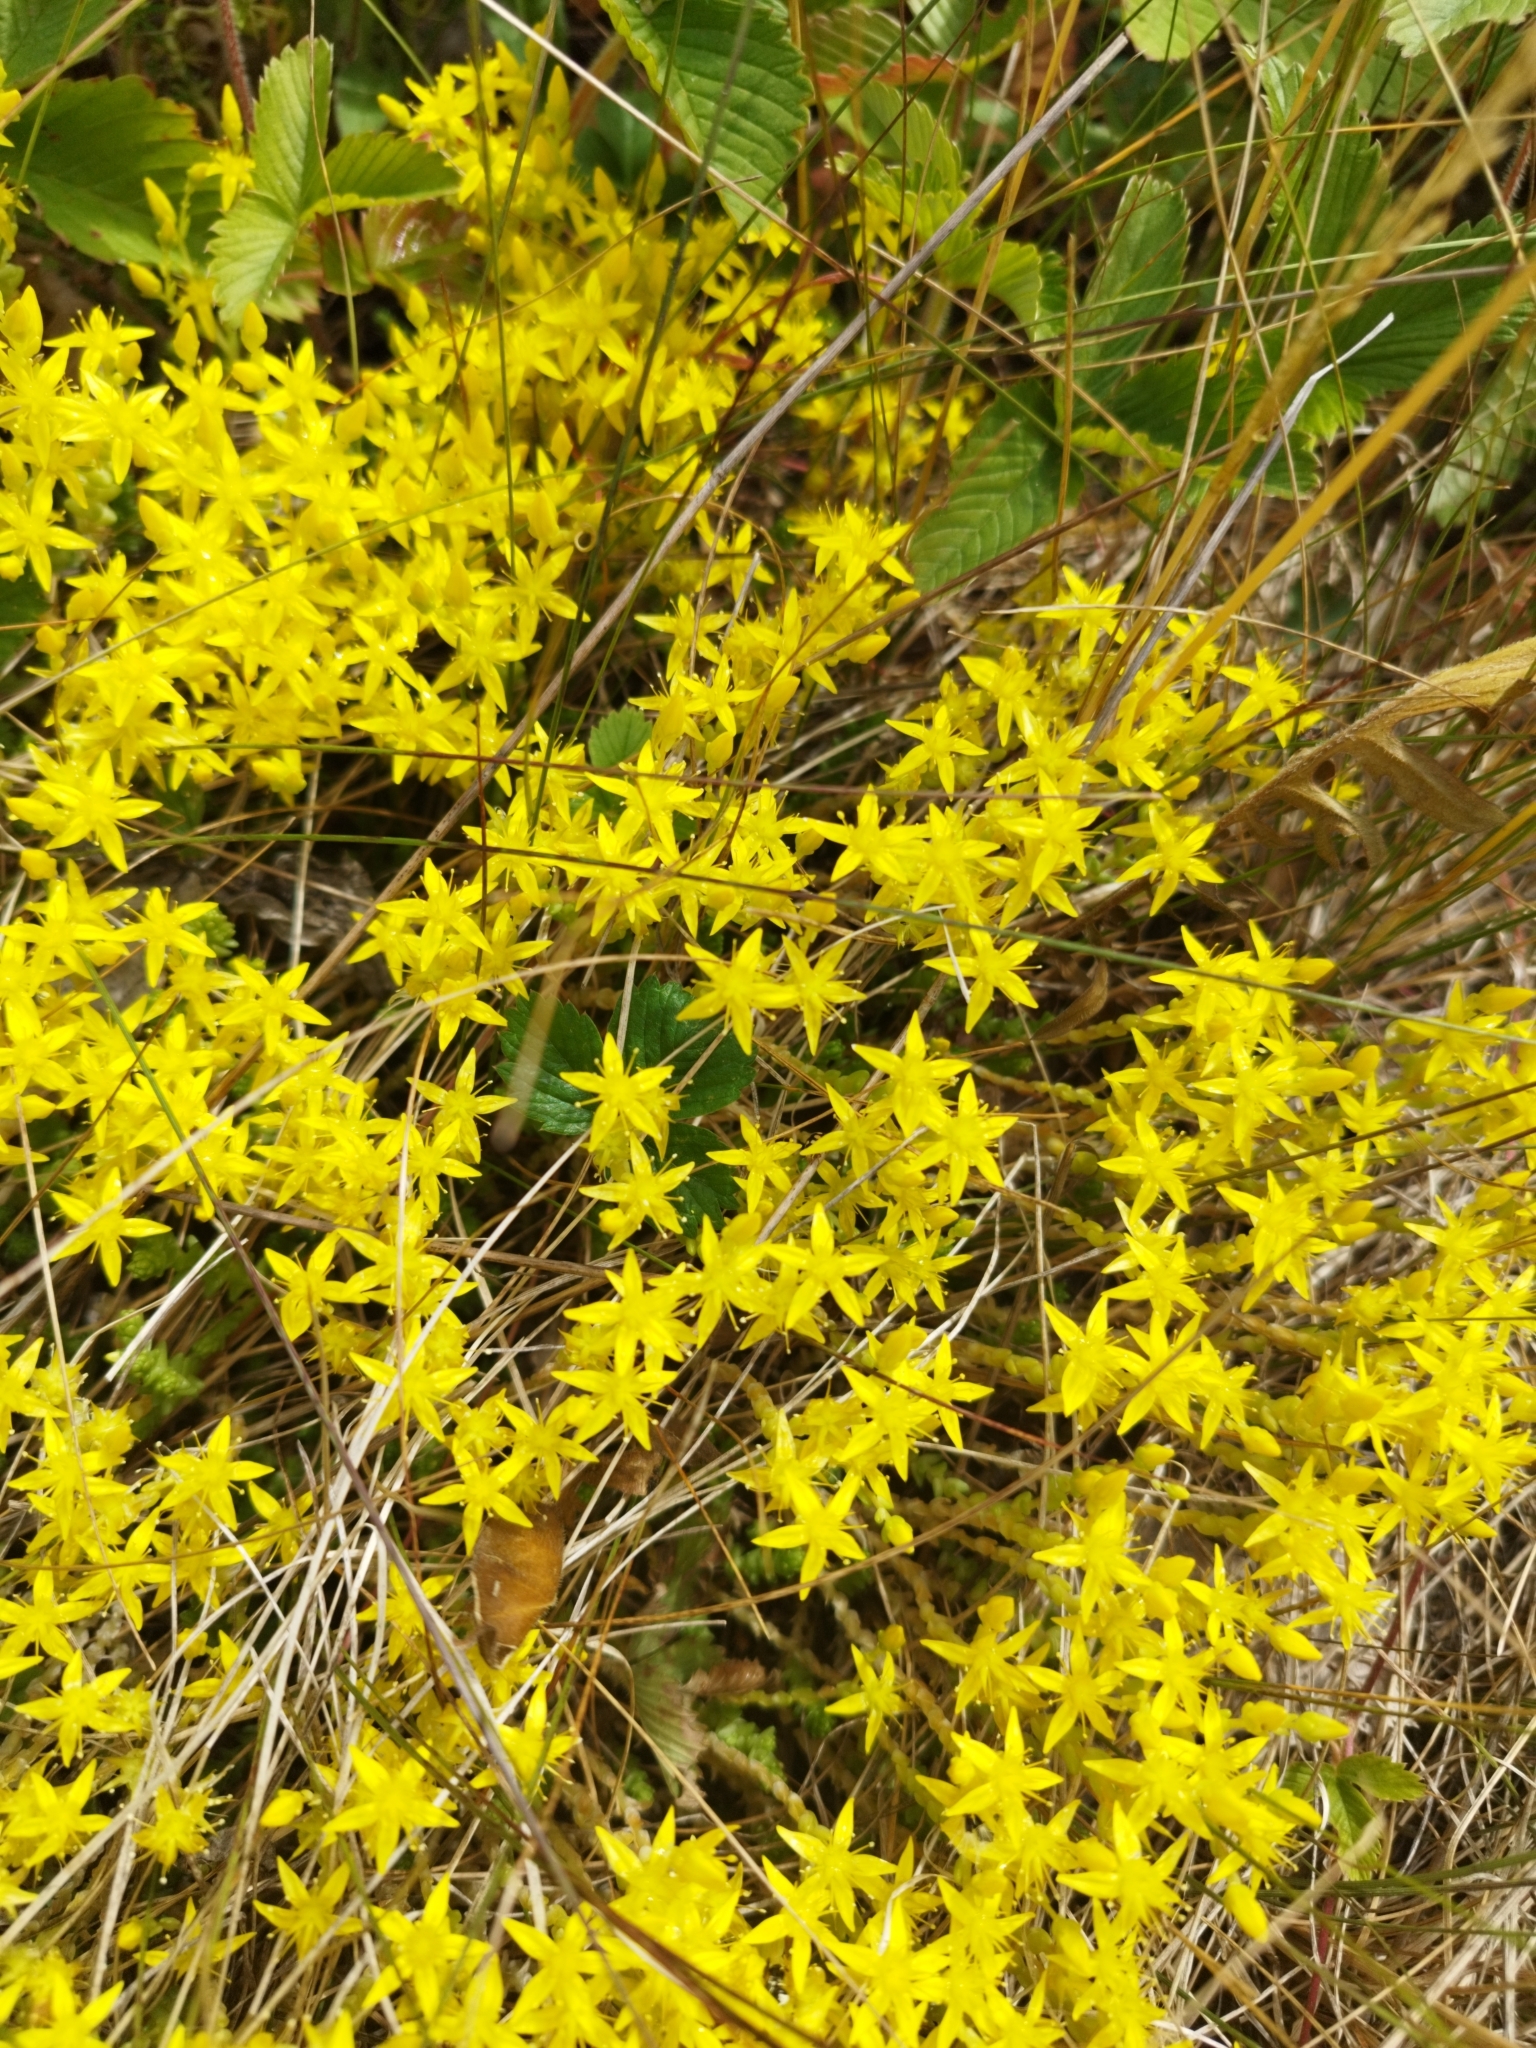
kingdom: Plantae
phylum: Tracheophyta
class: Magnoliopsida
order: Saxifragales
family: Crassulaceae
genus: Sedum
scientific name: Sedum acre
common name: Biting stonecrop
